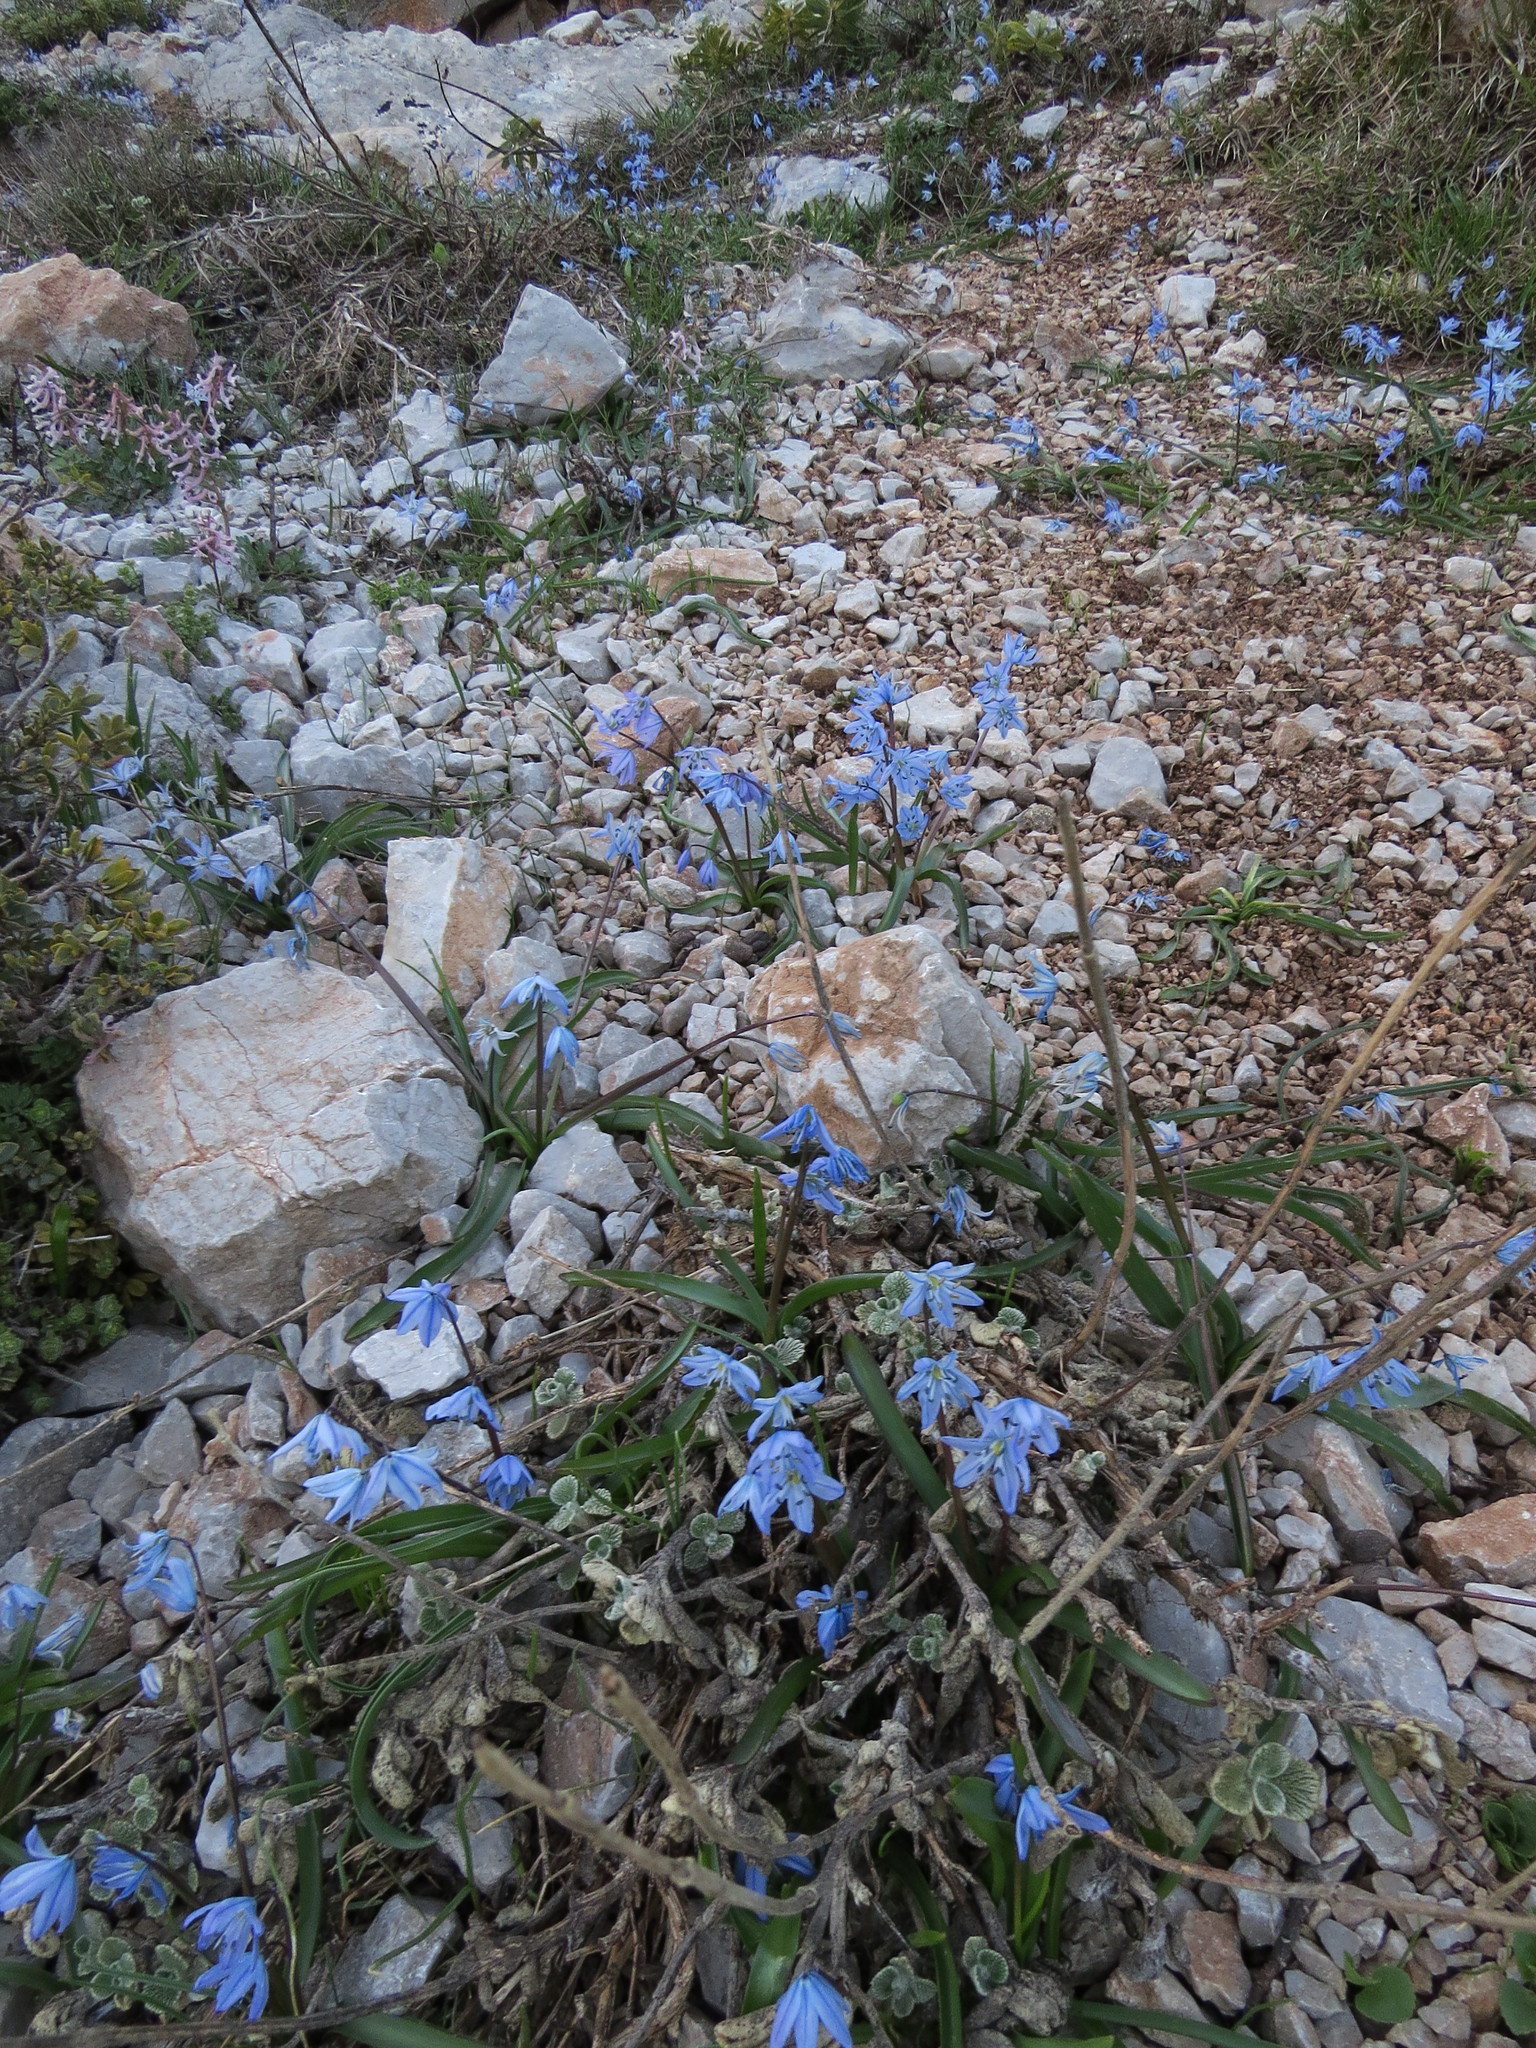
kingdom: Plantae
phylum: Tracheophyta
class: Liliopsida
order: Asparagales
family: Asparagaceae
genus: Scilla
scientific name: Scilla ingridiae
